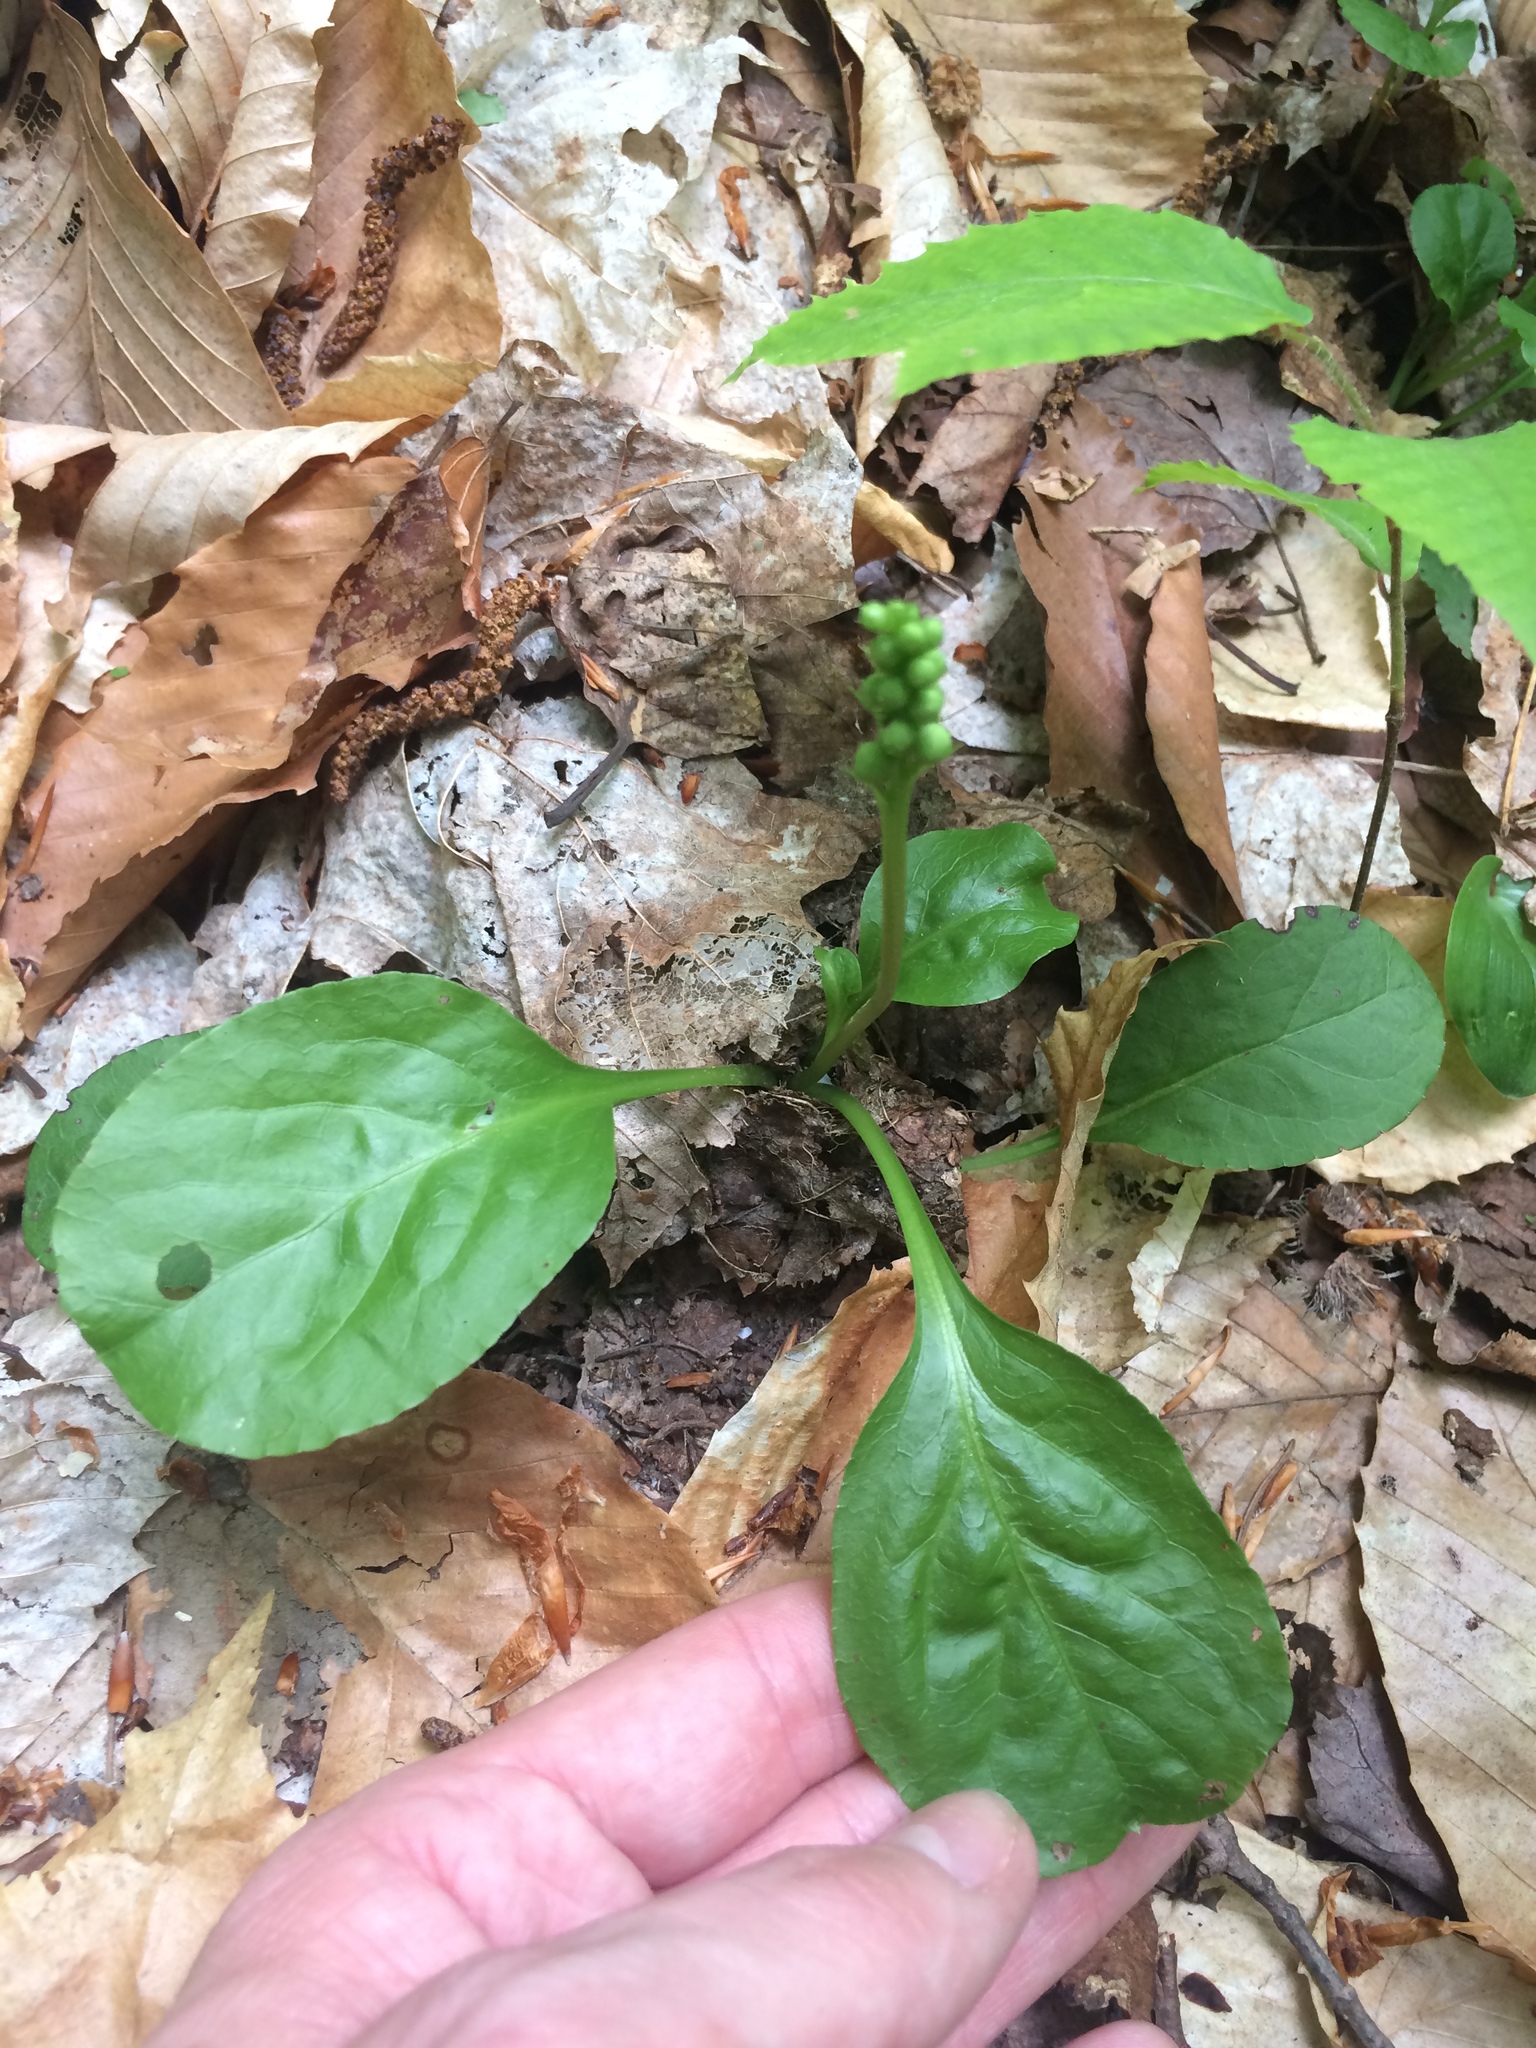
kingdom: Plantae
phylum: Tracheophyta
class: Magnoliopsida
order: Ericales
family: Ericaceae
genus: Pyrola
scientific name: Pyrola elliptica
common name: Shinleaf
